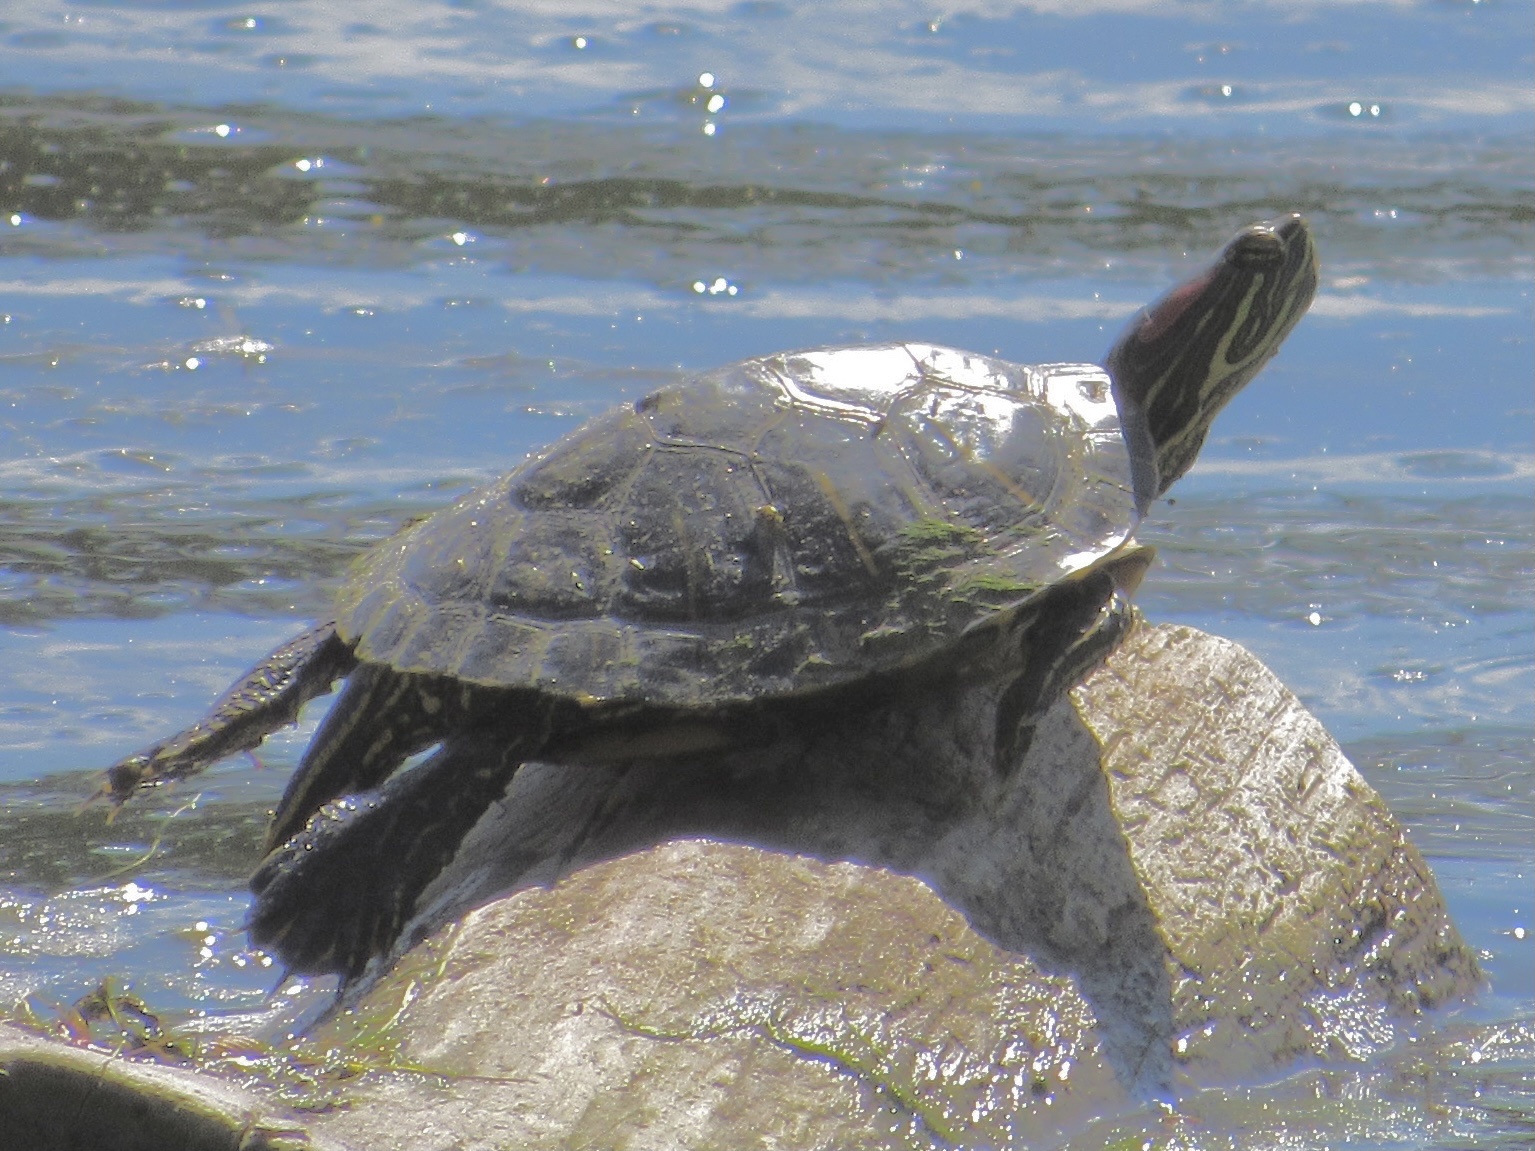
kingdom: Animalia
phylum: Chordata
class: Testudines
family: Emydidae
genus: Trachemys
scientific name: Trachemys scripta
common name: Slider
